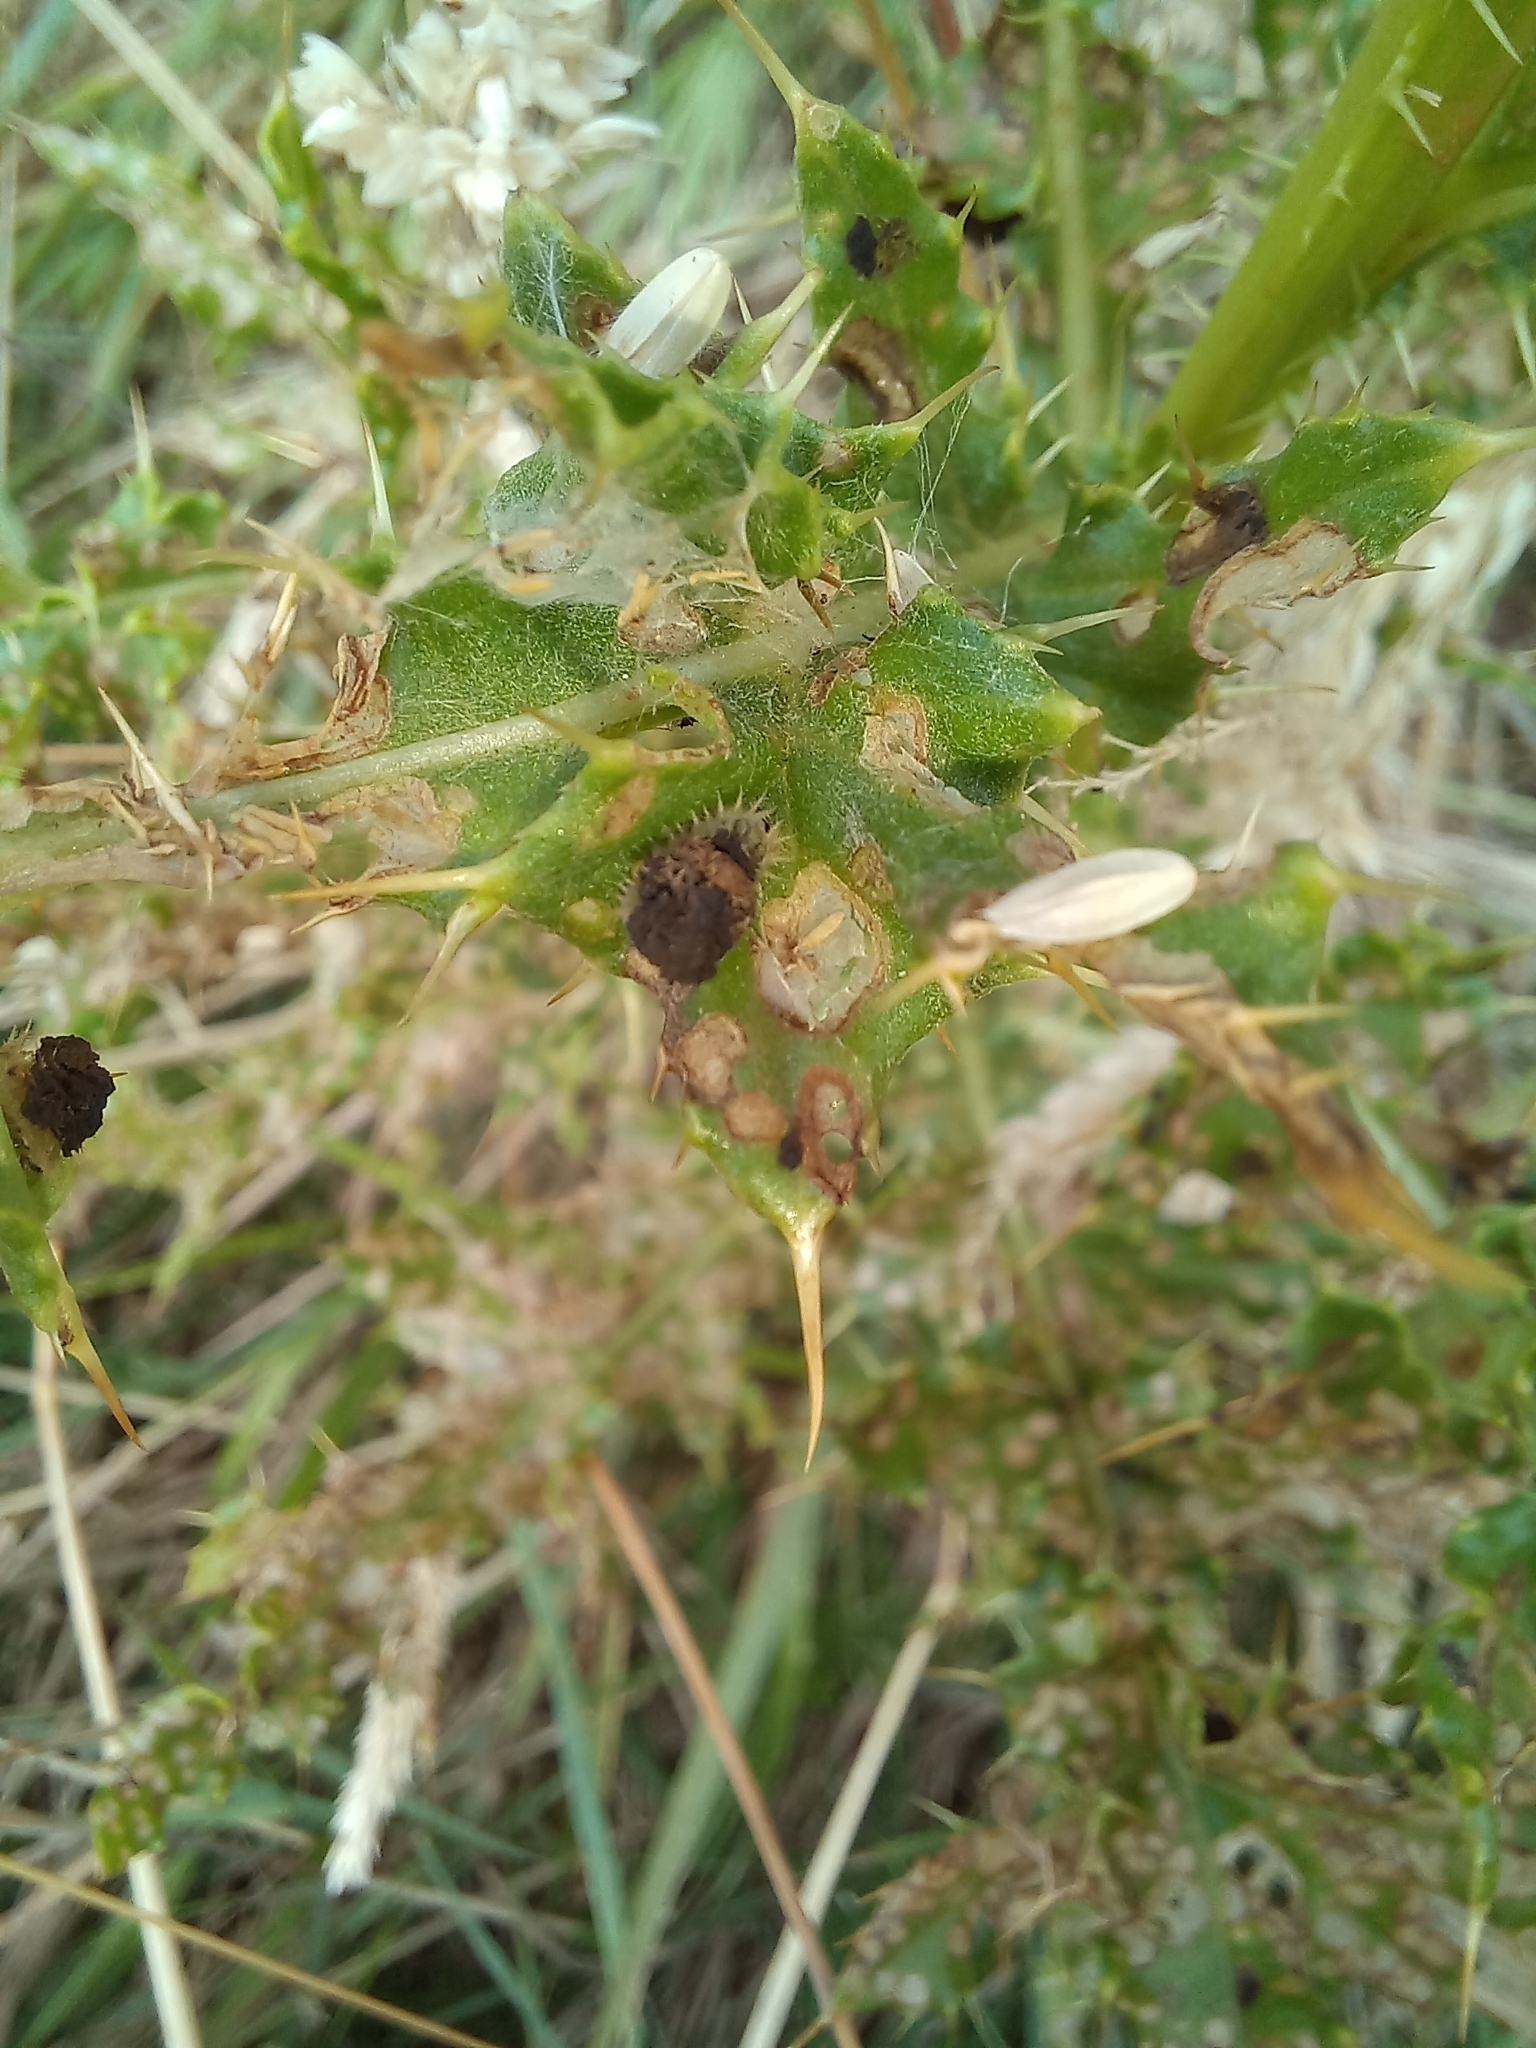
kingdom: Animalia
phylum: Arthropoda
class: Insecta
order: Coleoptera
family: Chrysomelidae
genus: Cassida
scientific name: Cassida rubiginosa
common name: Thistle tortoise beetle
